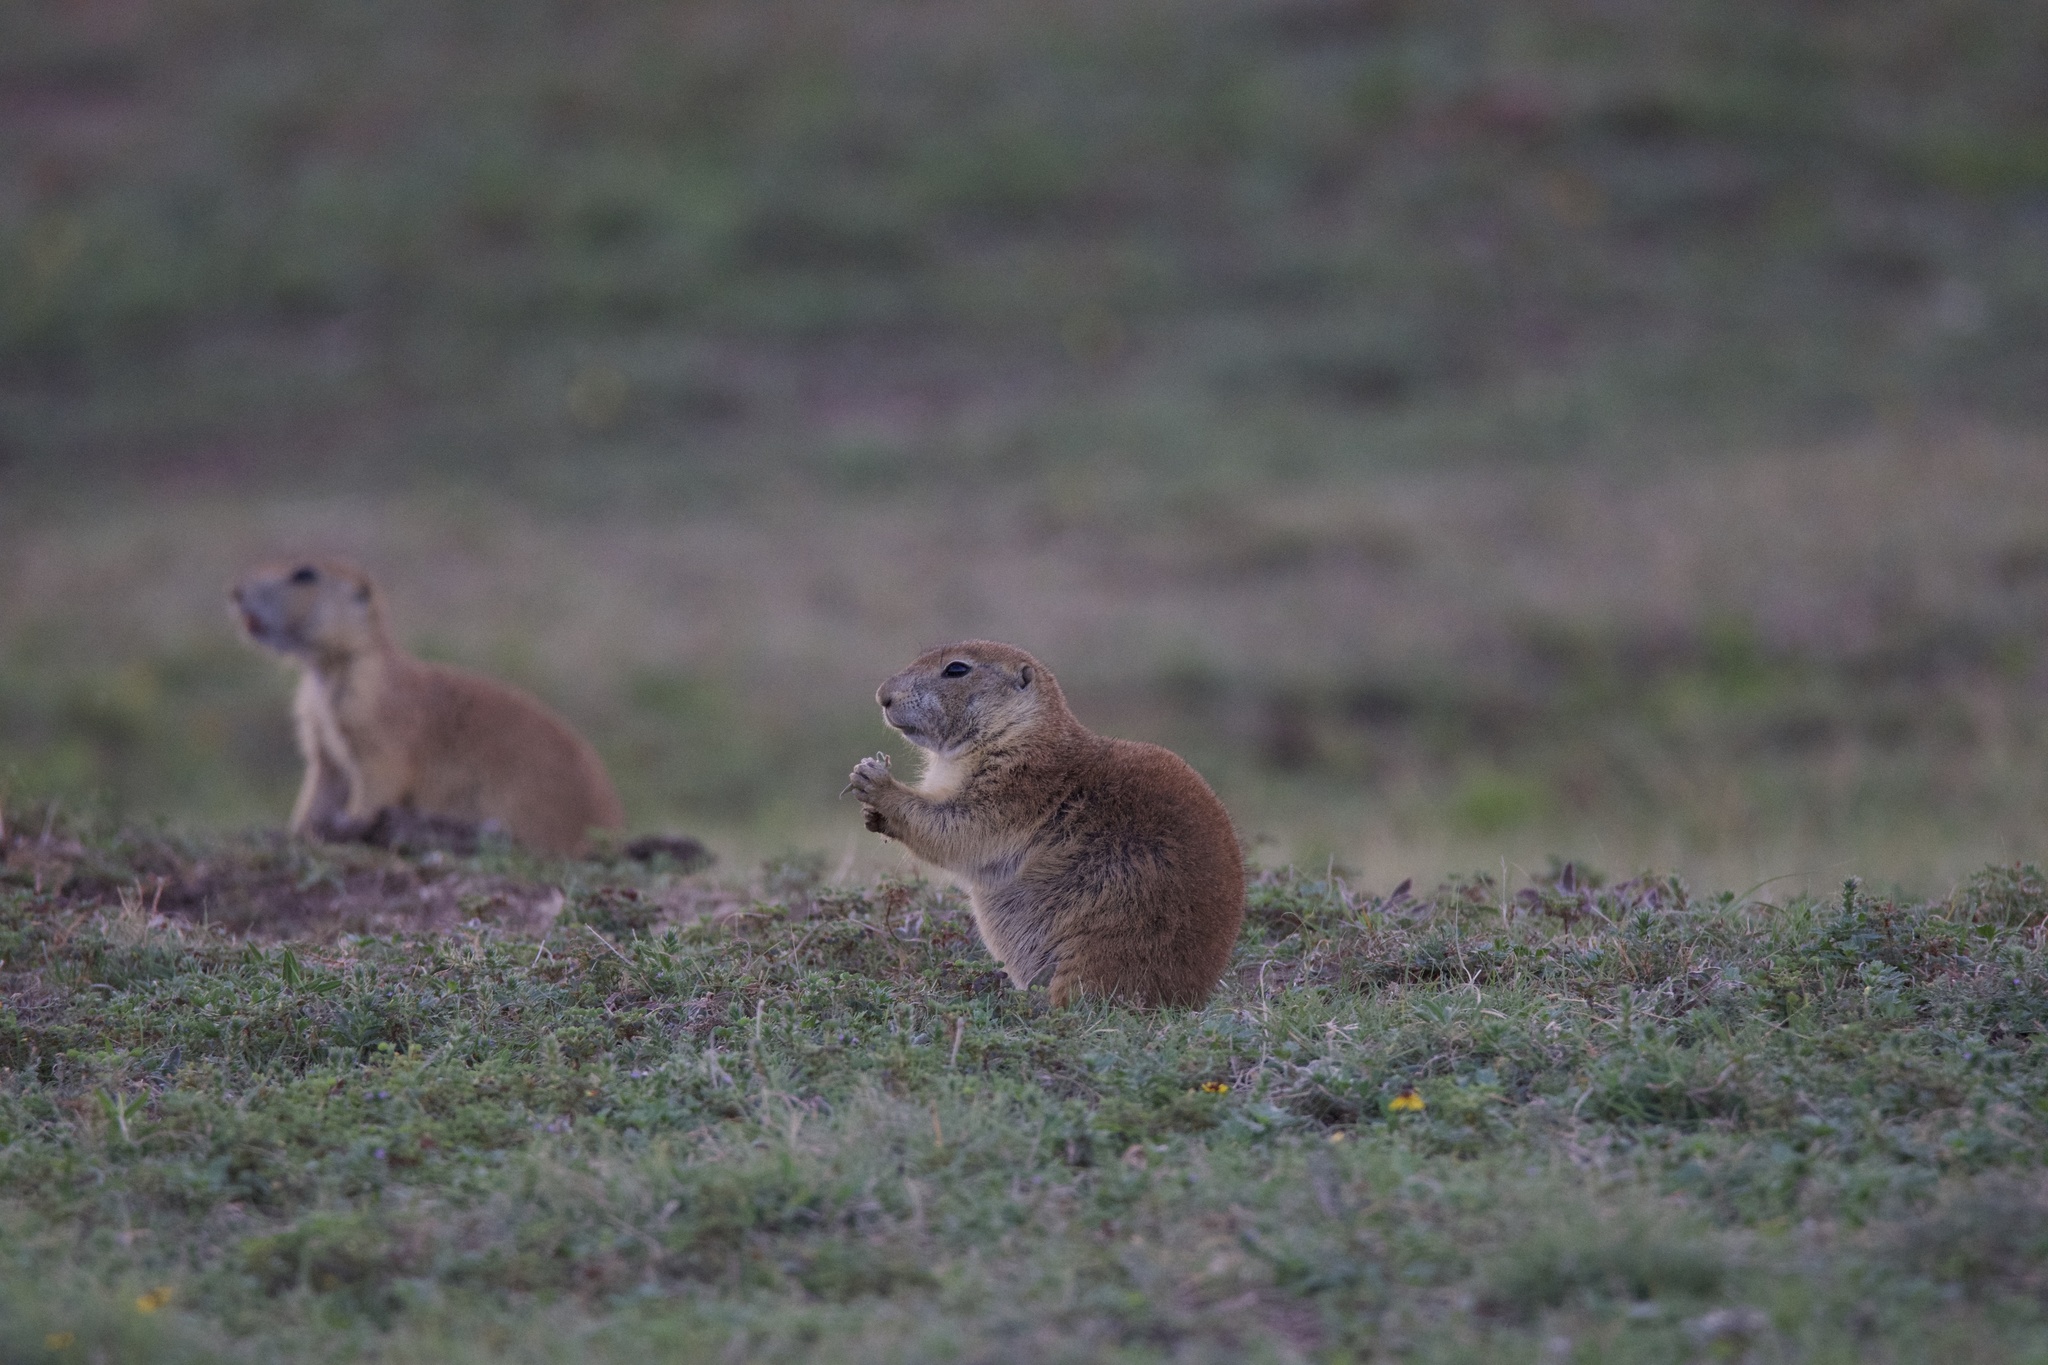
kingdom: Animalia
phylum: Chordata
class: Mammalia
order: Rodentia
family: Sciuridae
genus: Cynomys
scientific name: Cynomys ludovicianus
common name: Black-tailed prairie dog
